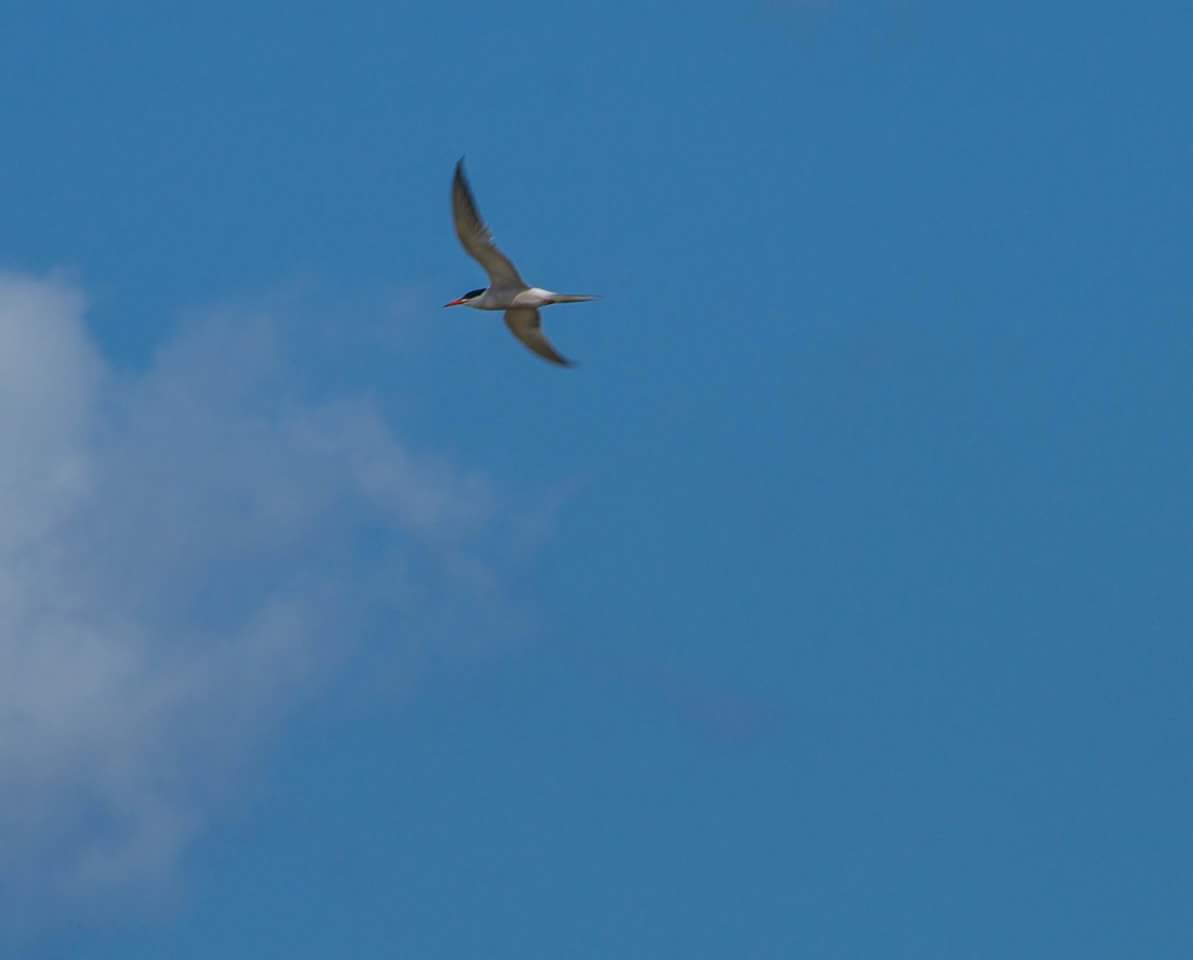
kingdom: Animalia
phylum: Chordata
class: Aves
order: Charadriiformes
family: Laridae
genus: Sterna
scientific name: Sterna hirundo
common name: Common tern
